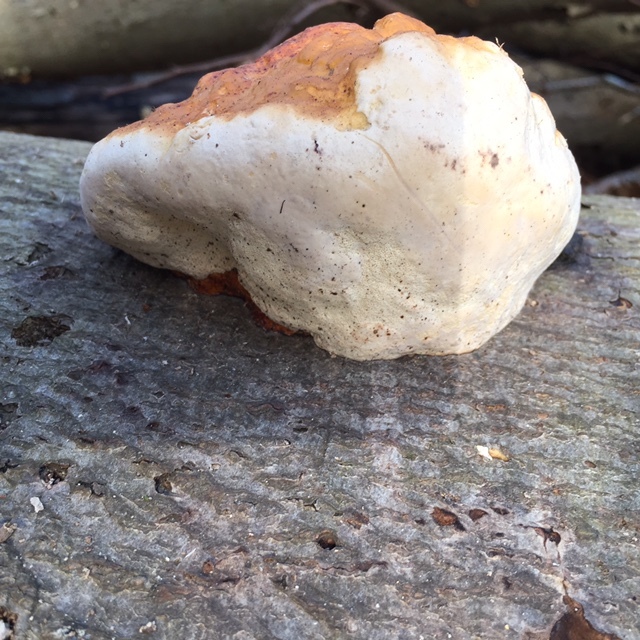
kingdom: Fungi
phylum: Basidiomycota
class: Agaricomycetes
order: Polyporales
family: Fomitopsidaceae
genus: Fomitopsis
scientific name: Fomitopsis pinicola
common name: Red-belted bracket
